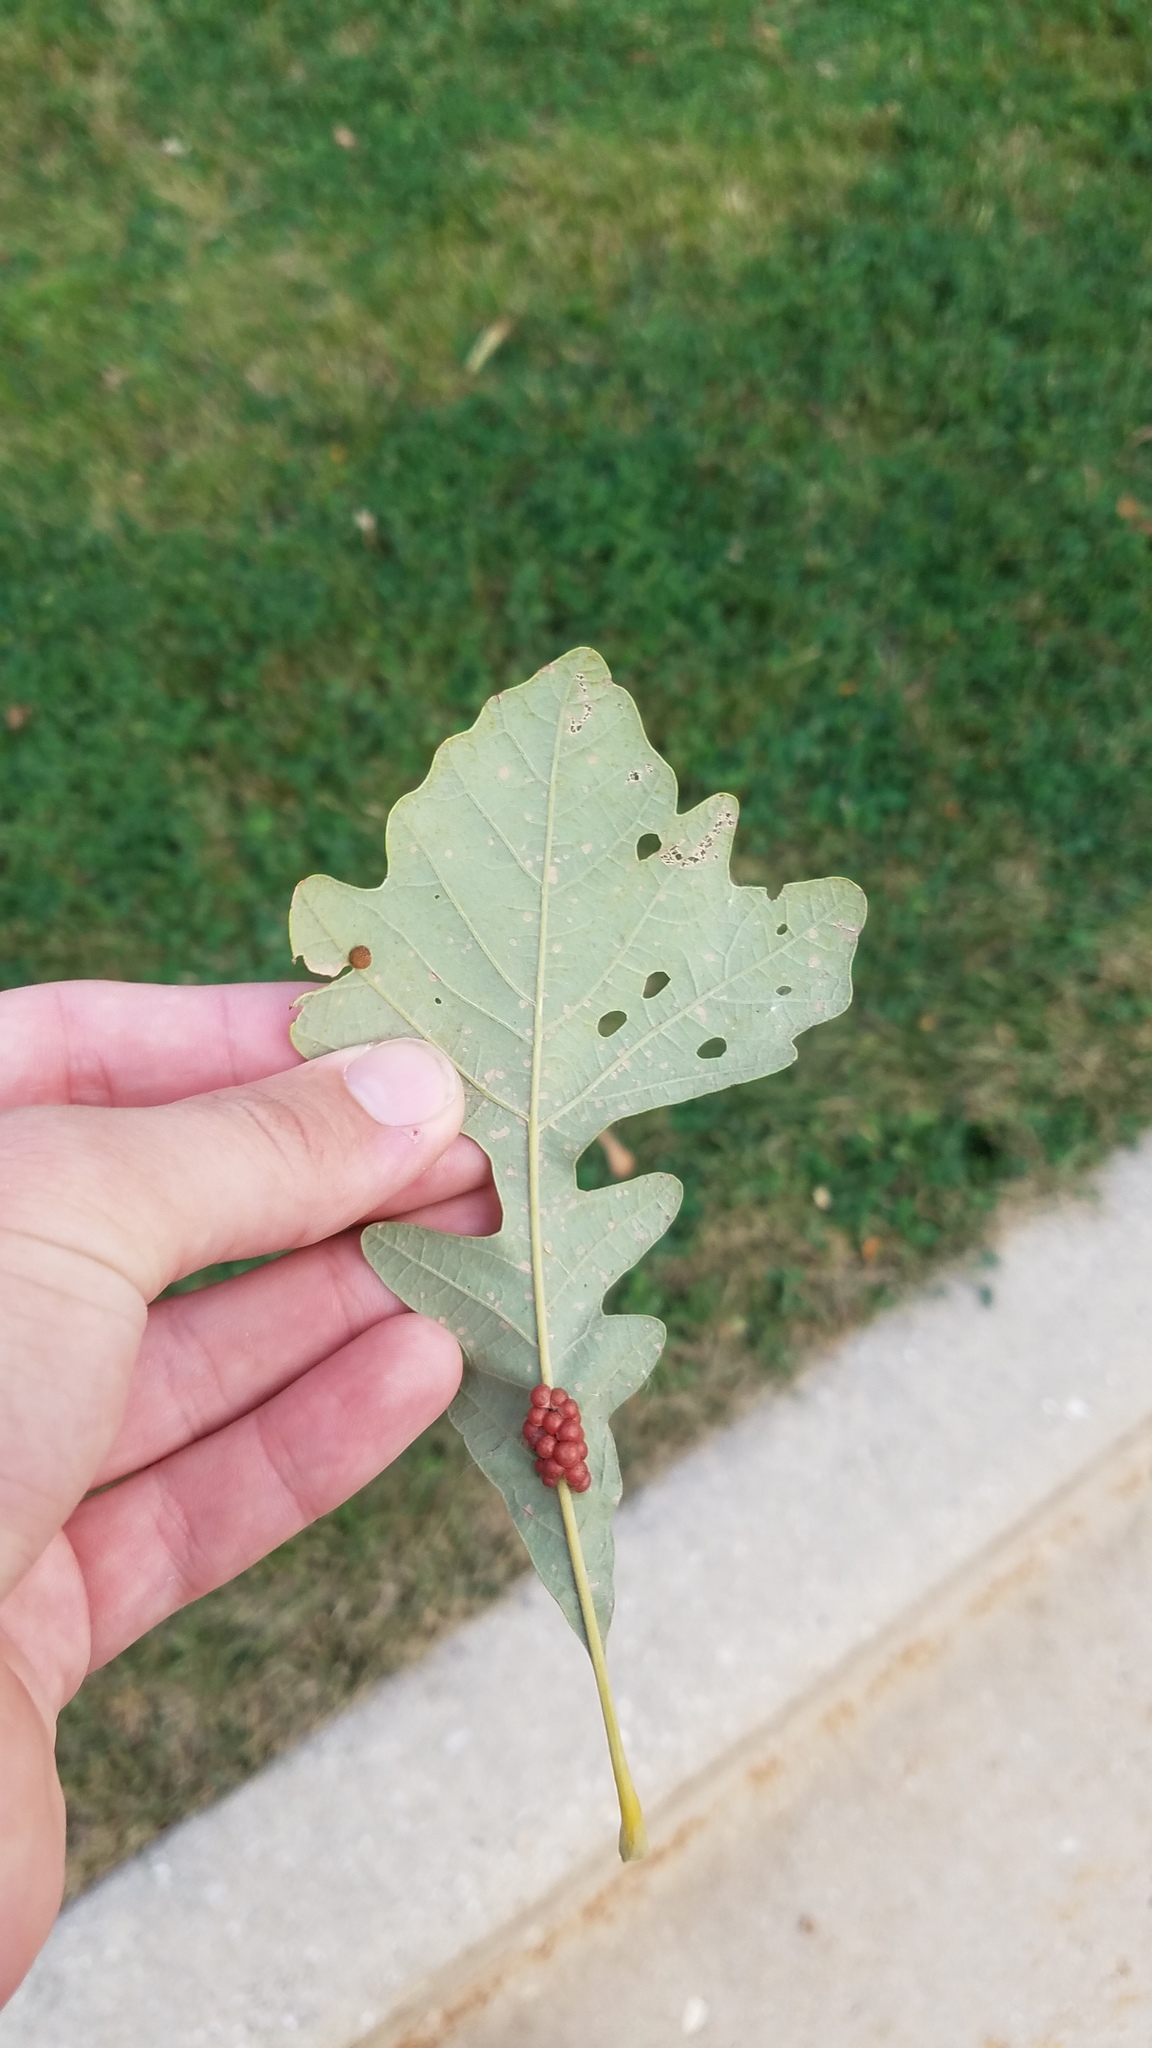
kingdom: Animalia
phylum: Arthropoda
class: Insecta
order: Hymenoptera
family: Cynipidae
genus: Andricus
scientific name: Andricus
